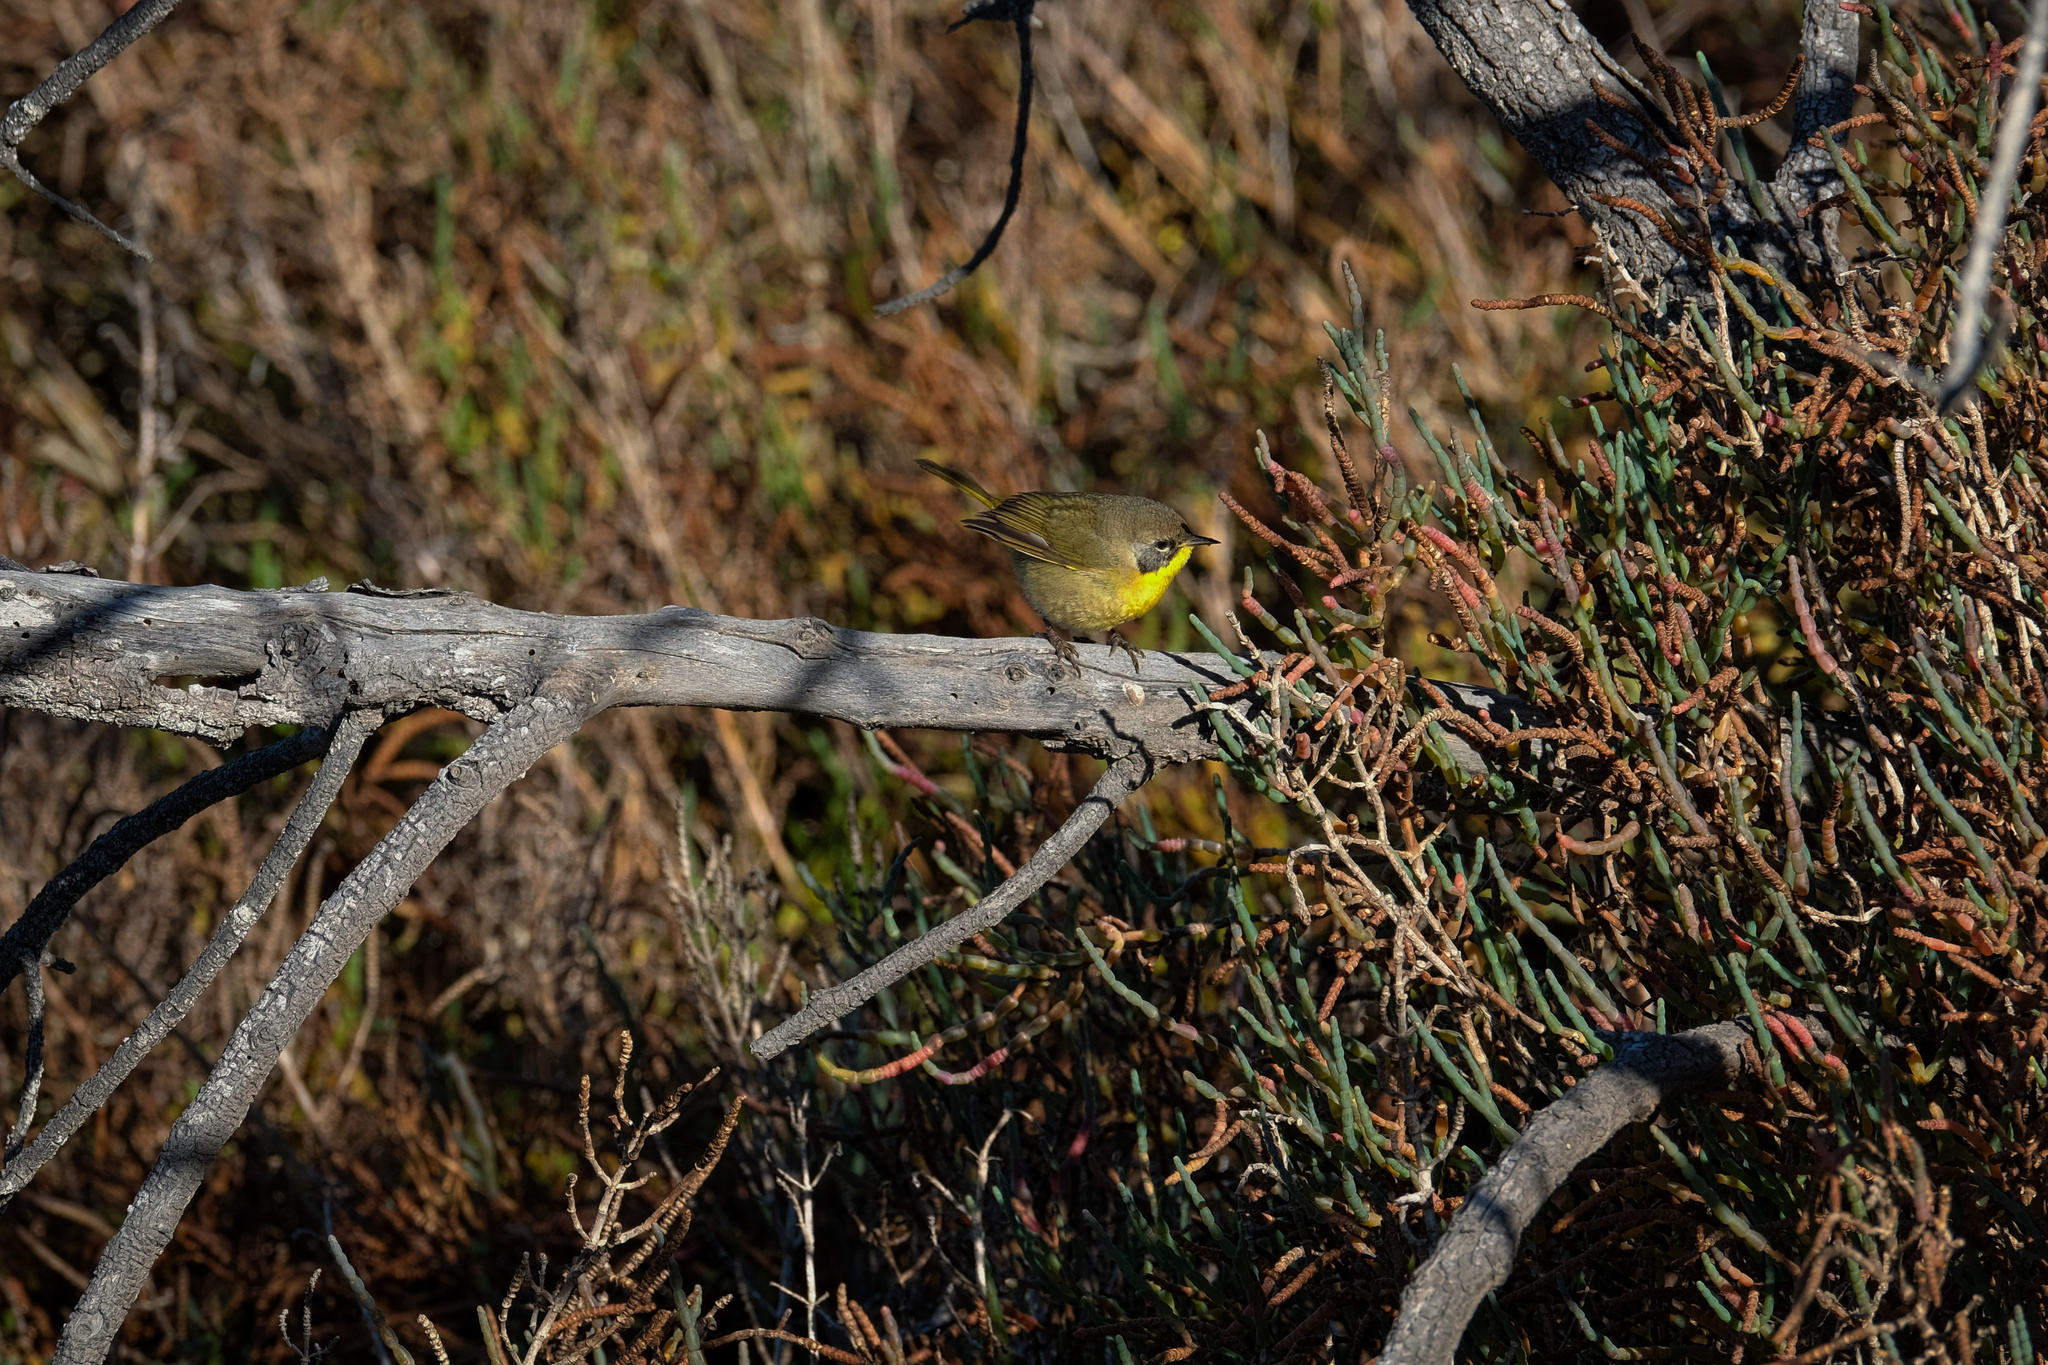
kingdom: Animalia
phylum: Chordata
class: Aves
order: Passeriformes
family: Parulidae
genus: Geothlypis
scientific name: Geothlypis trichas
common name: Common yellowthroat
